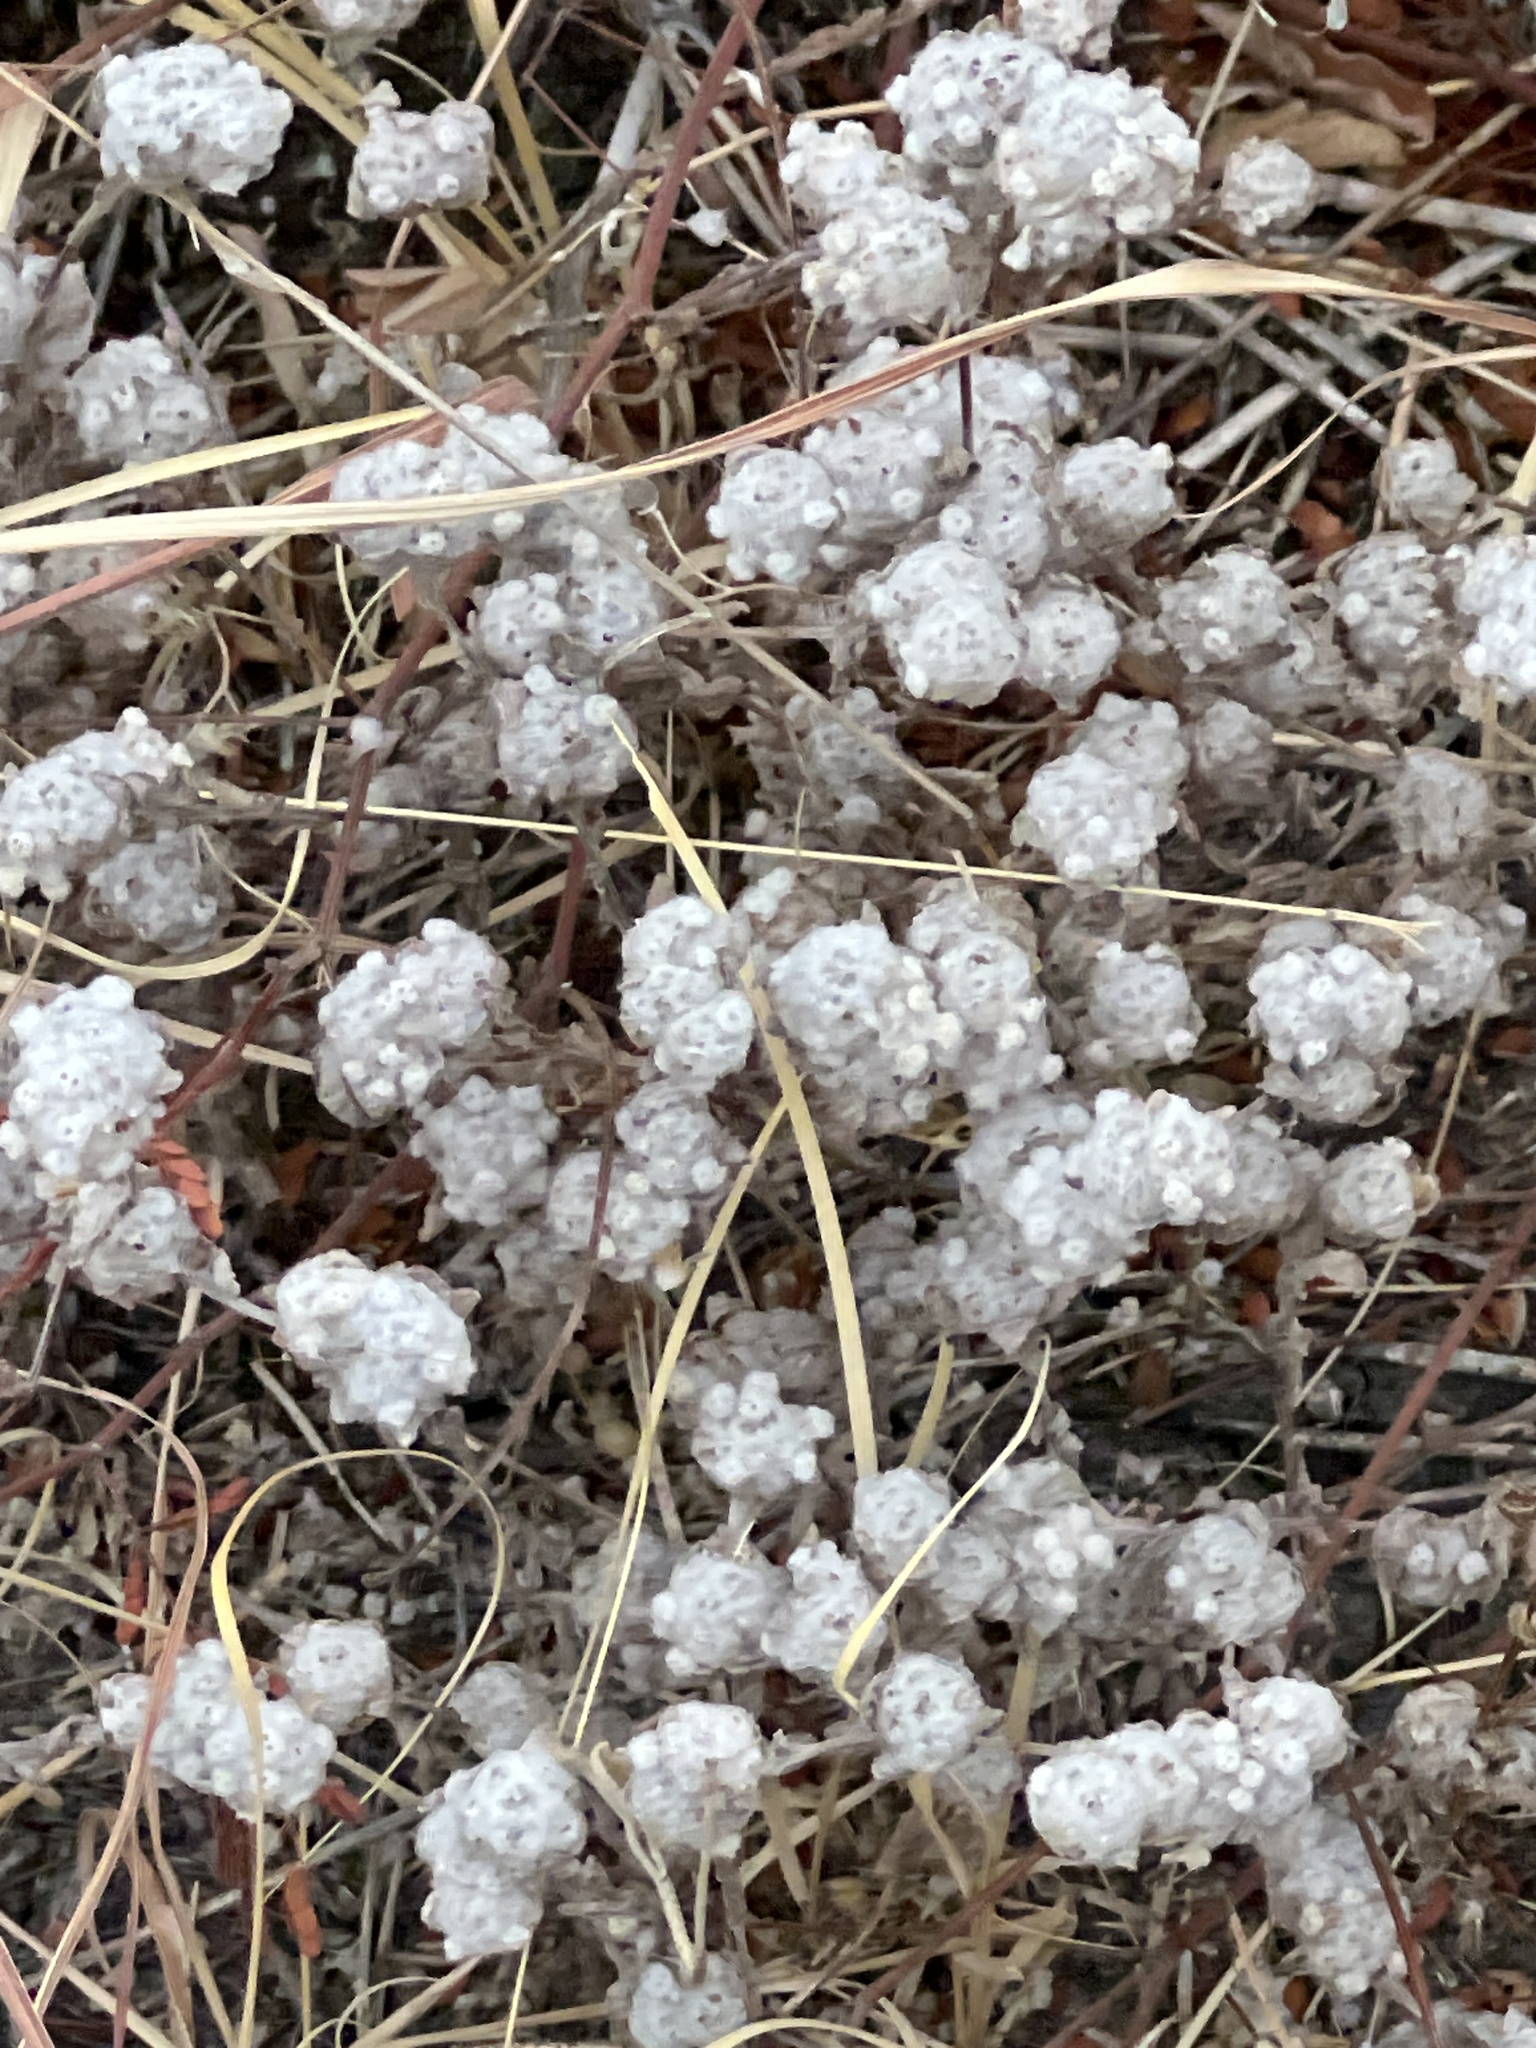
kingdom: Plantae
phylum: Tracheophyta
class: Magnoliopsida
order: Asterales
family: Asteraceae
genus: Diaperia
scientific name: Diaperia verna
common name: Many-stem rabbit-tobacco
